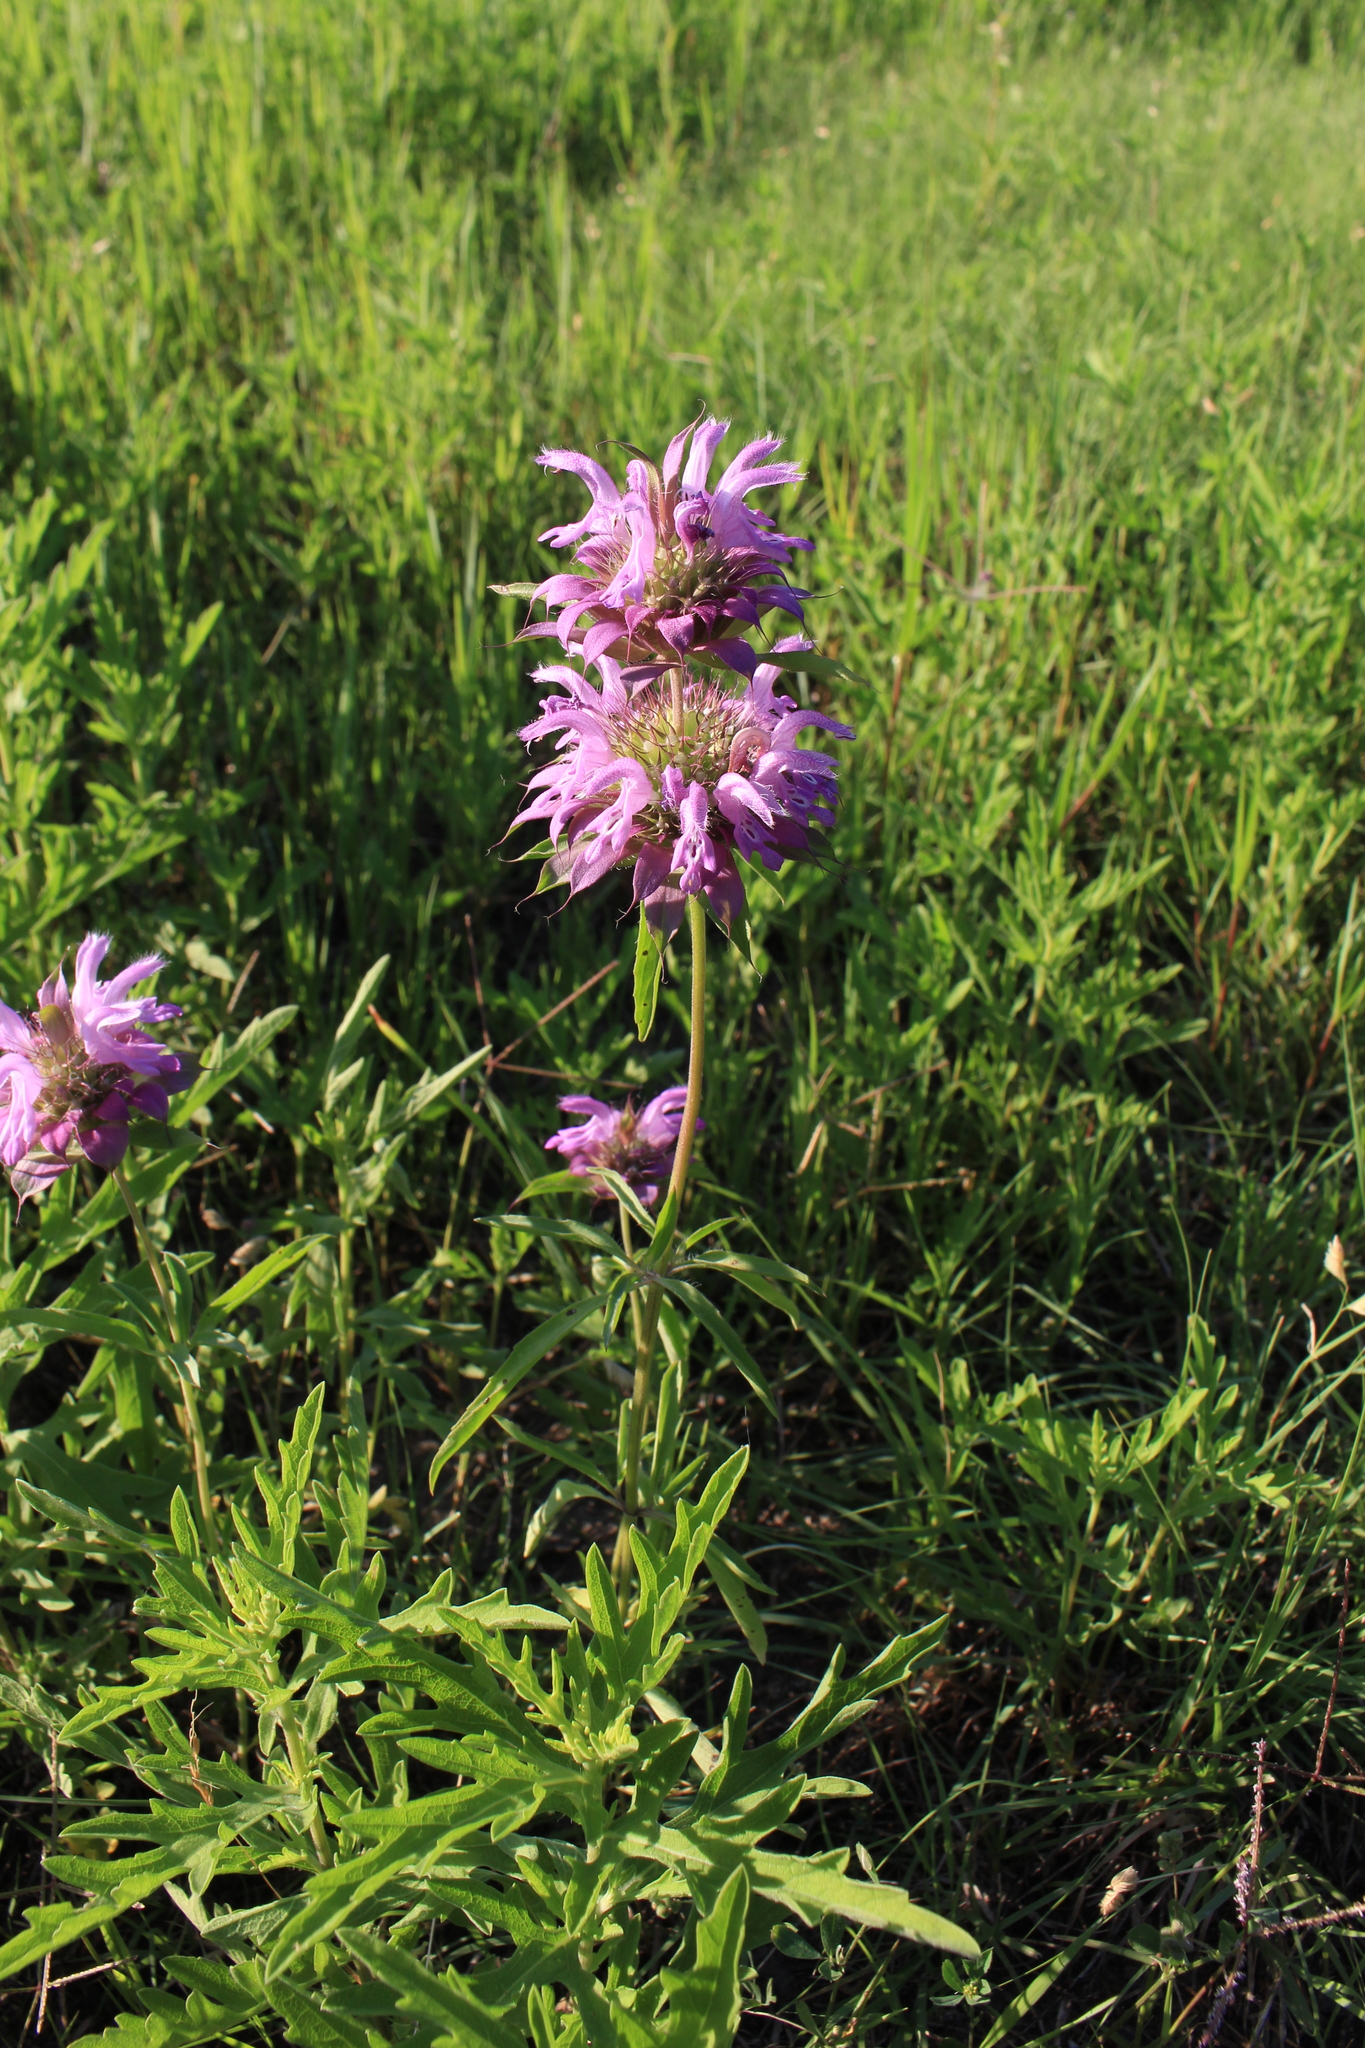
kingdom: Plantae
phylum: Tracheophyta
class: Magnoliopsida
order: Lamiales
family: Lamiaceae
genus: Monarda
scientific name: Monarda citriodora
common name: Lemon beebalm
